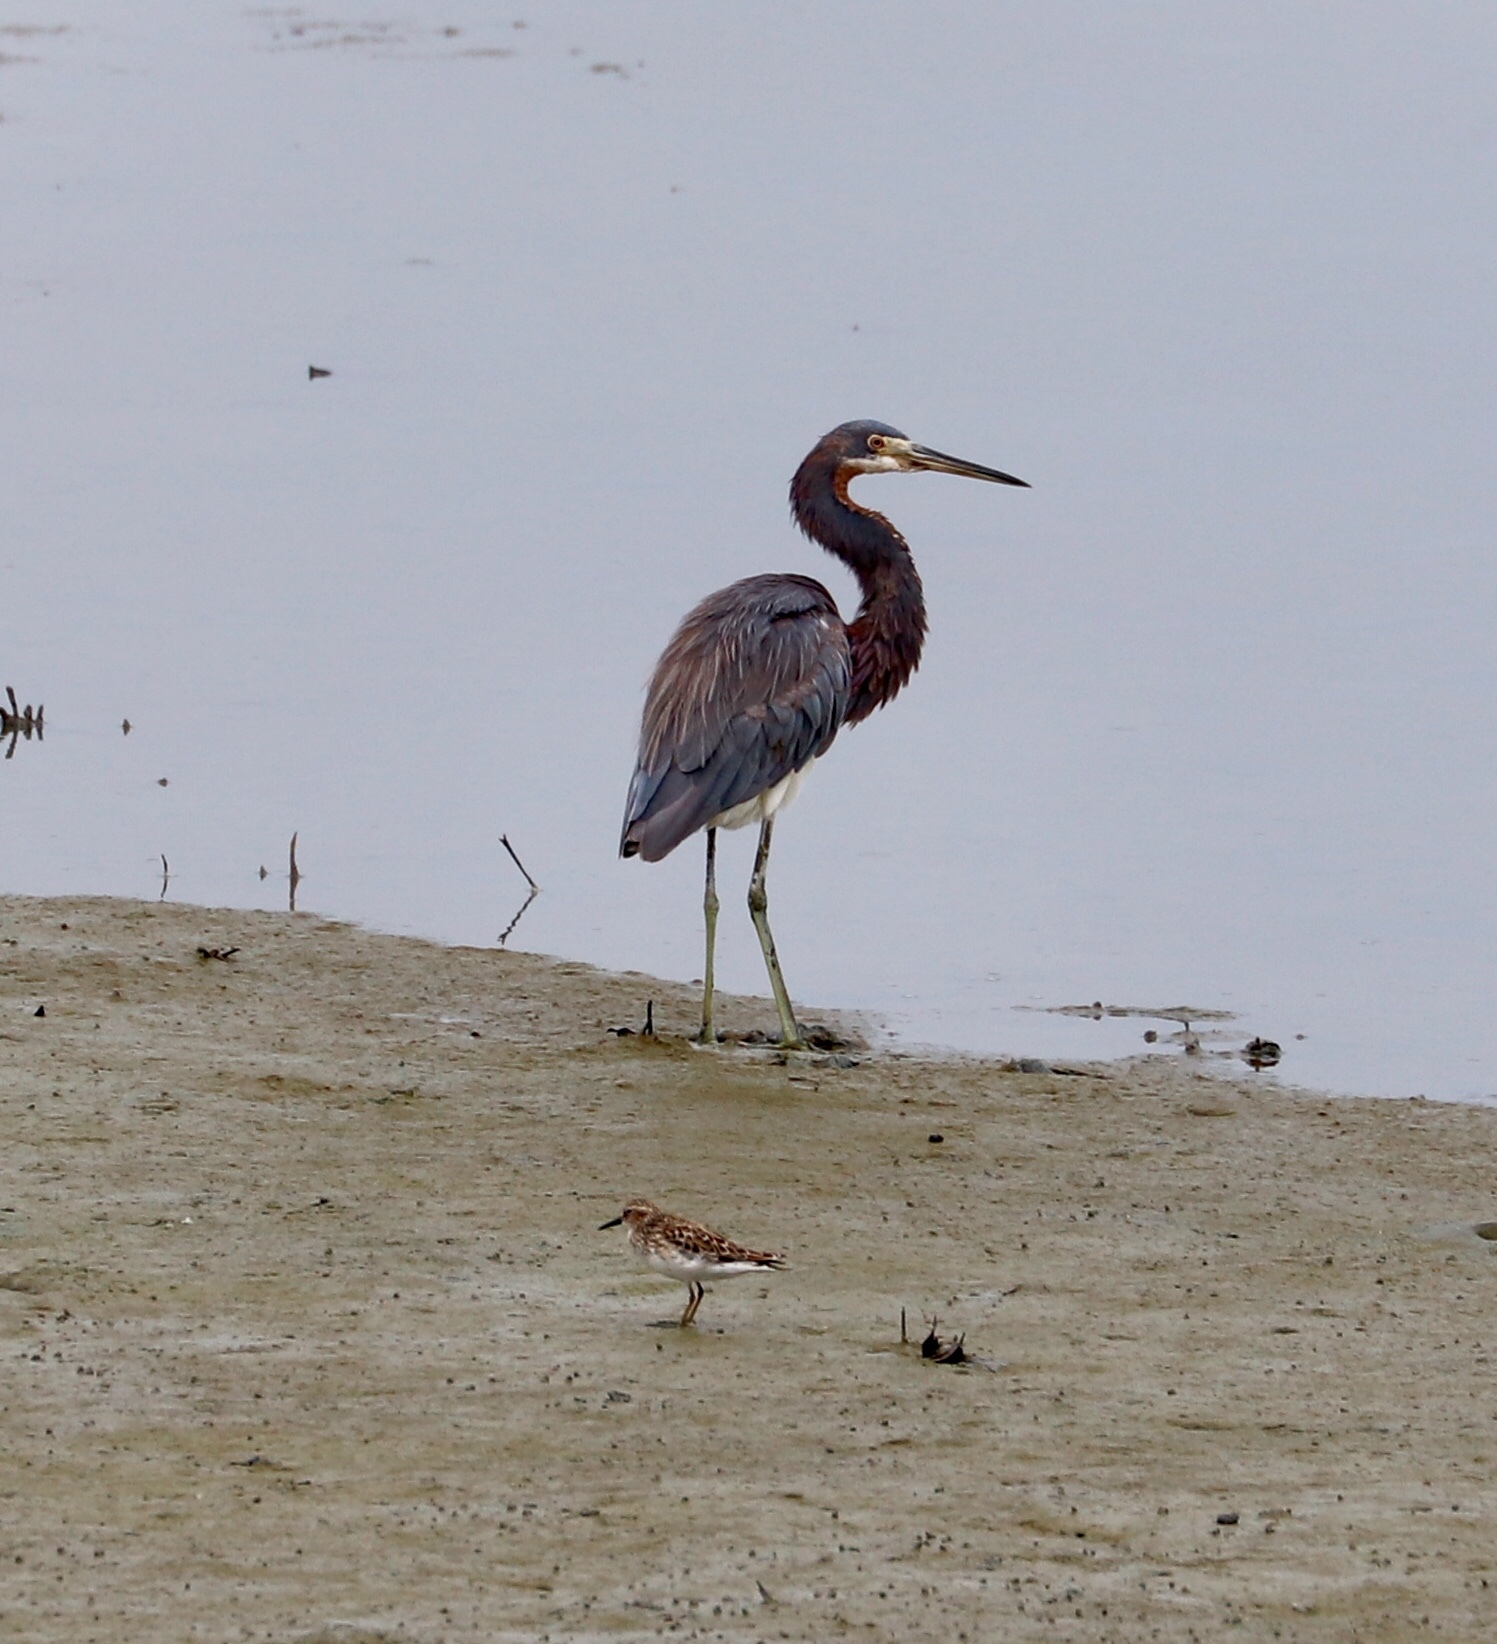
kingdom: Animalia
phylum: Chordata
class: Aves
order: Pelecaniformes
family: Ardeidae
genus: Egretta
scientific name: Egretta tricolor
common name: Tricolored heron
